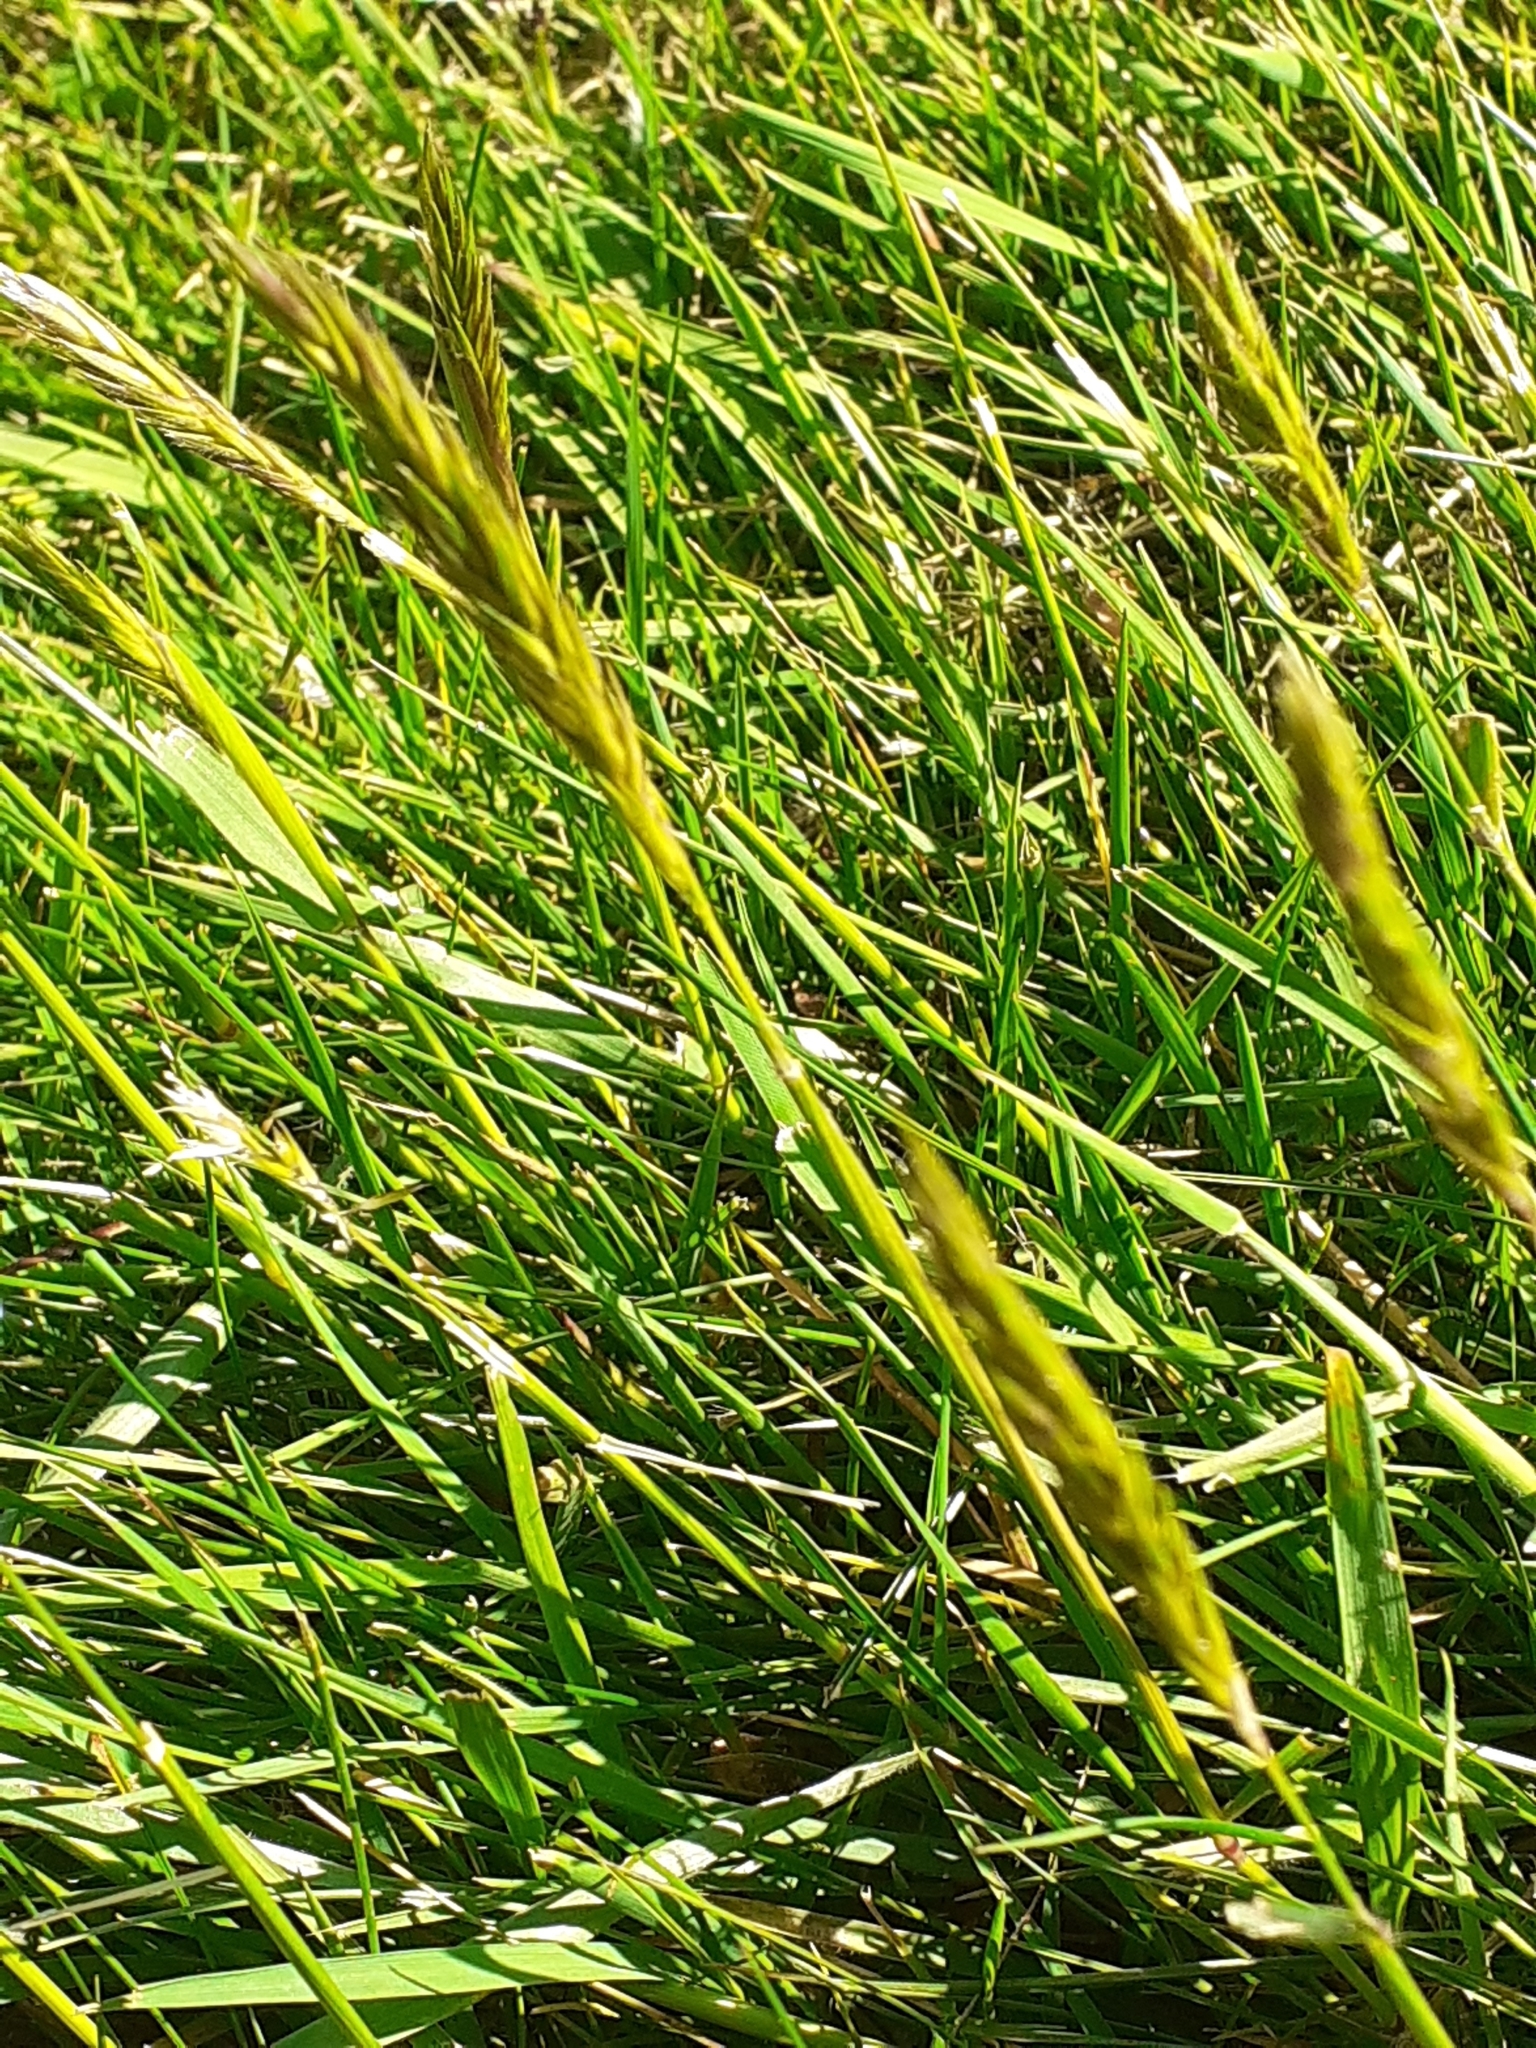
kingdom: Plantae
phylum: Tracheophyta
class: Liliopsida
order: Poales
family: Poaceae
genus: Anthoxanthum
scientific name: Anthoxanthum odoratum
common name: Sweet vernalgrass
